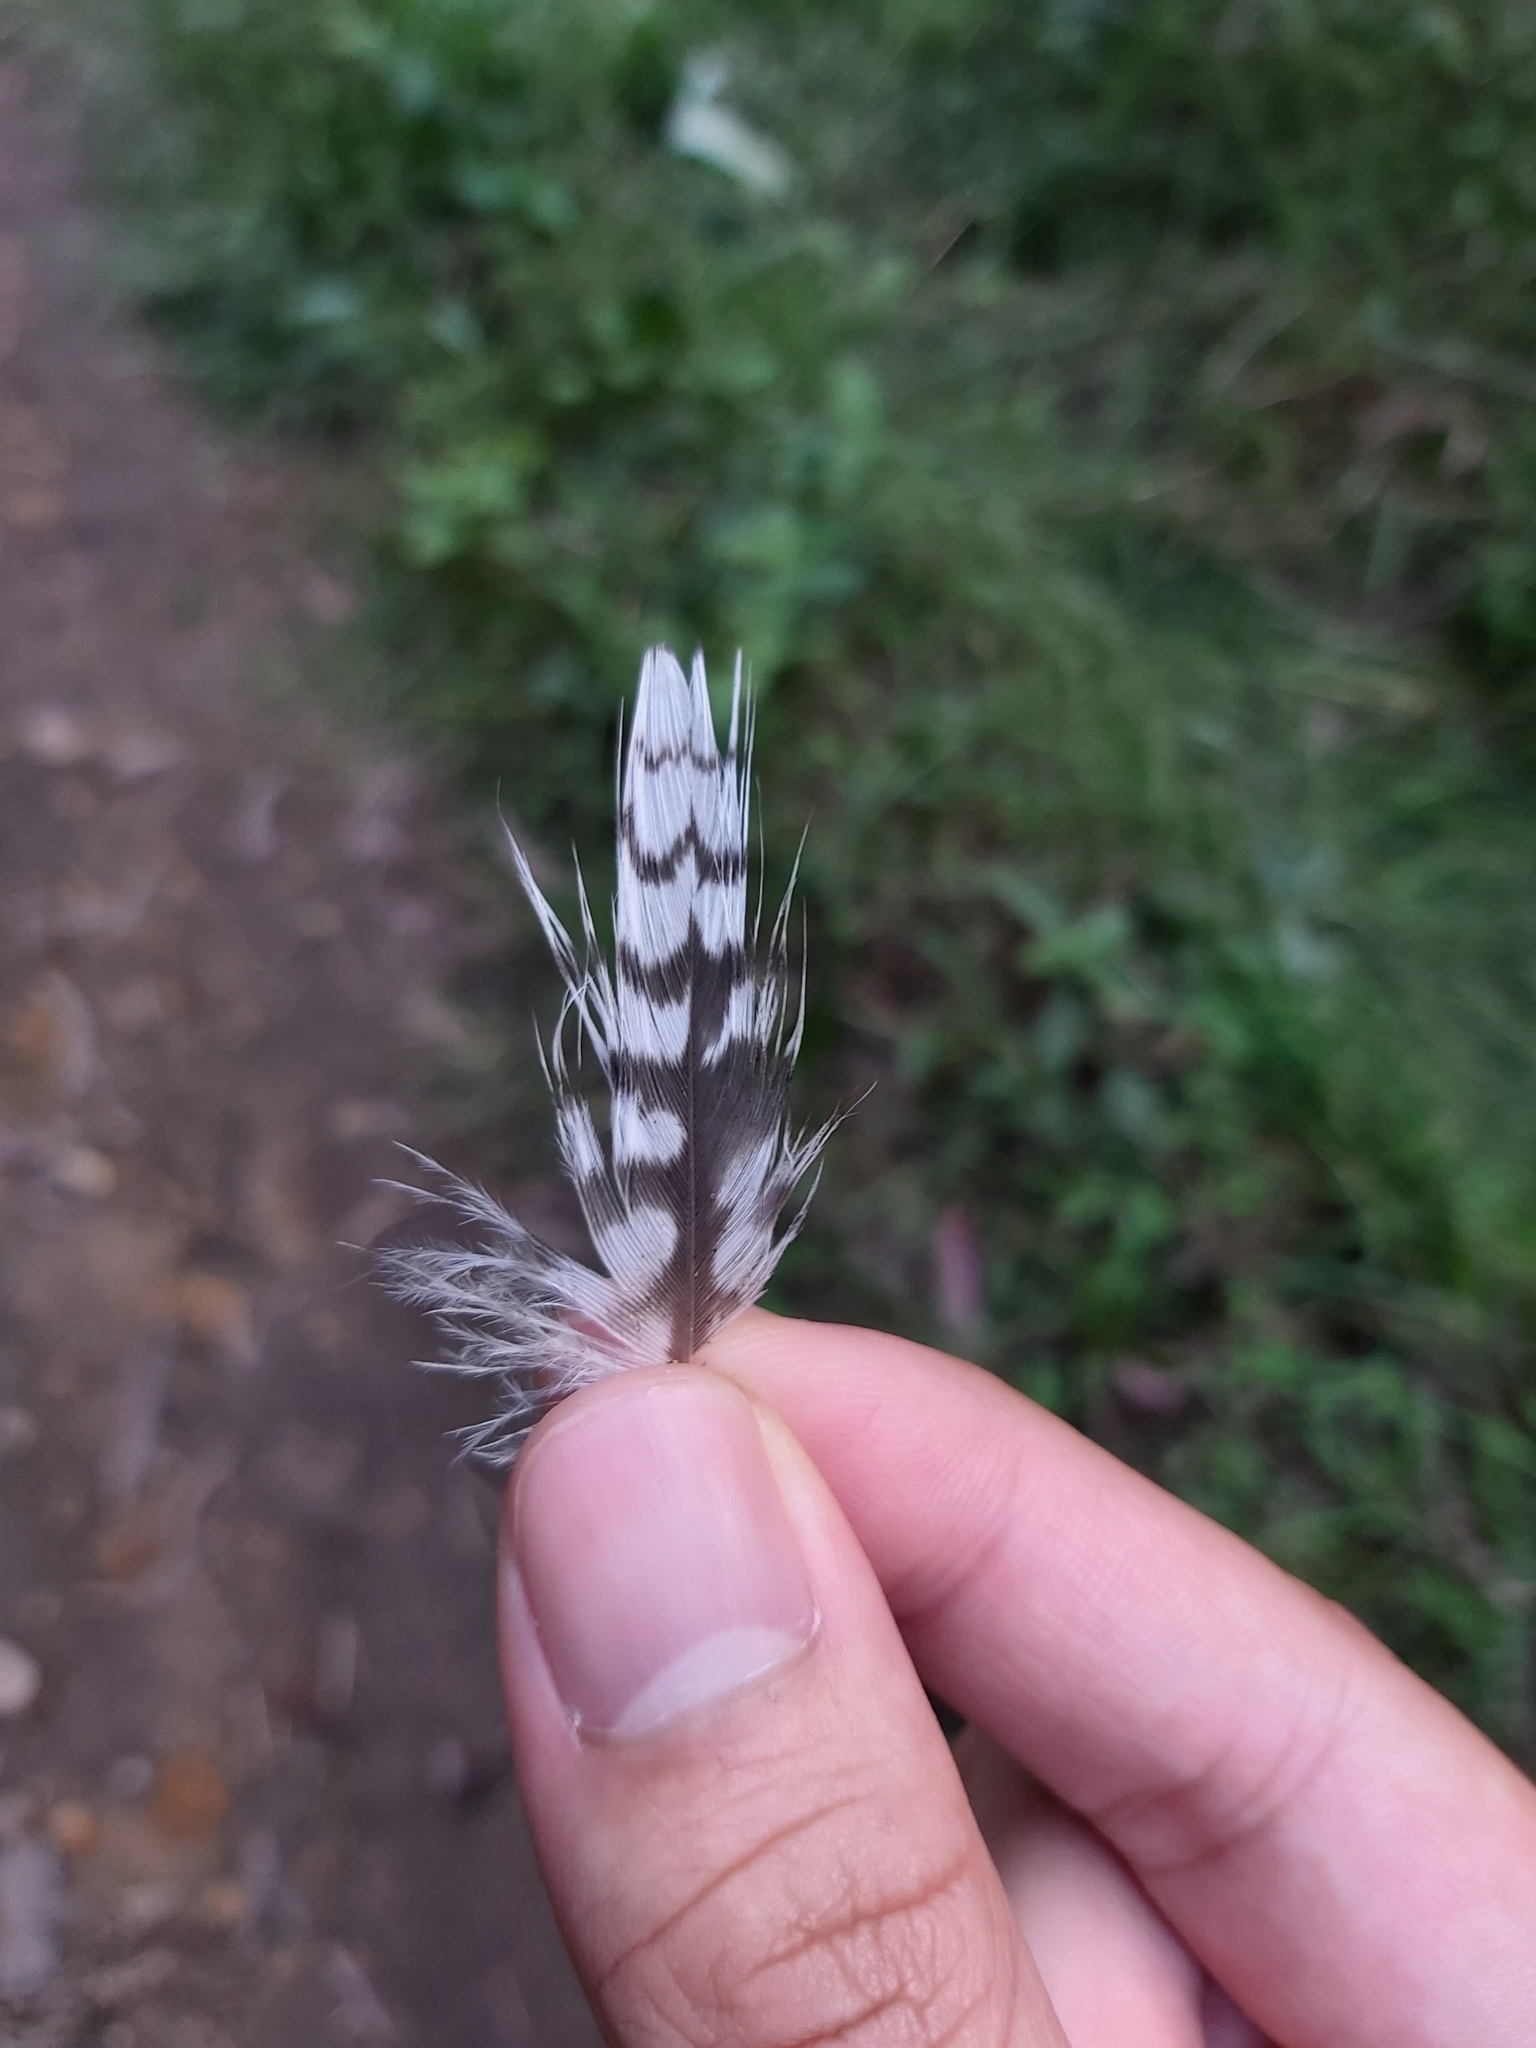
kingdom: Animalia
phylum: Chordata
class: Aves
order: Coraciiformes
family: Alcedinidae
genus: Dacelo
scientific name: Dacelo novaeguineae
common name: Laughing kookaburra
